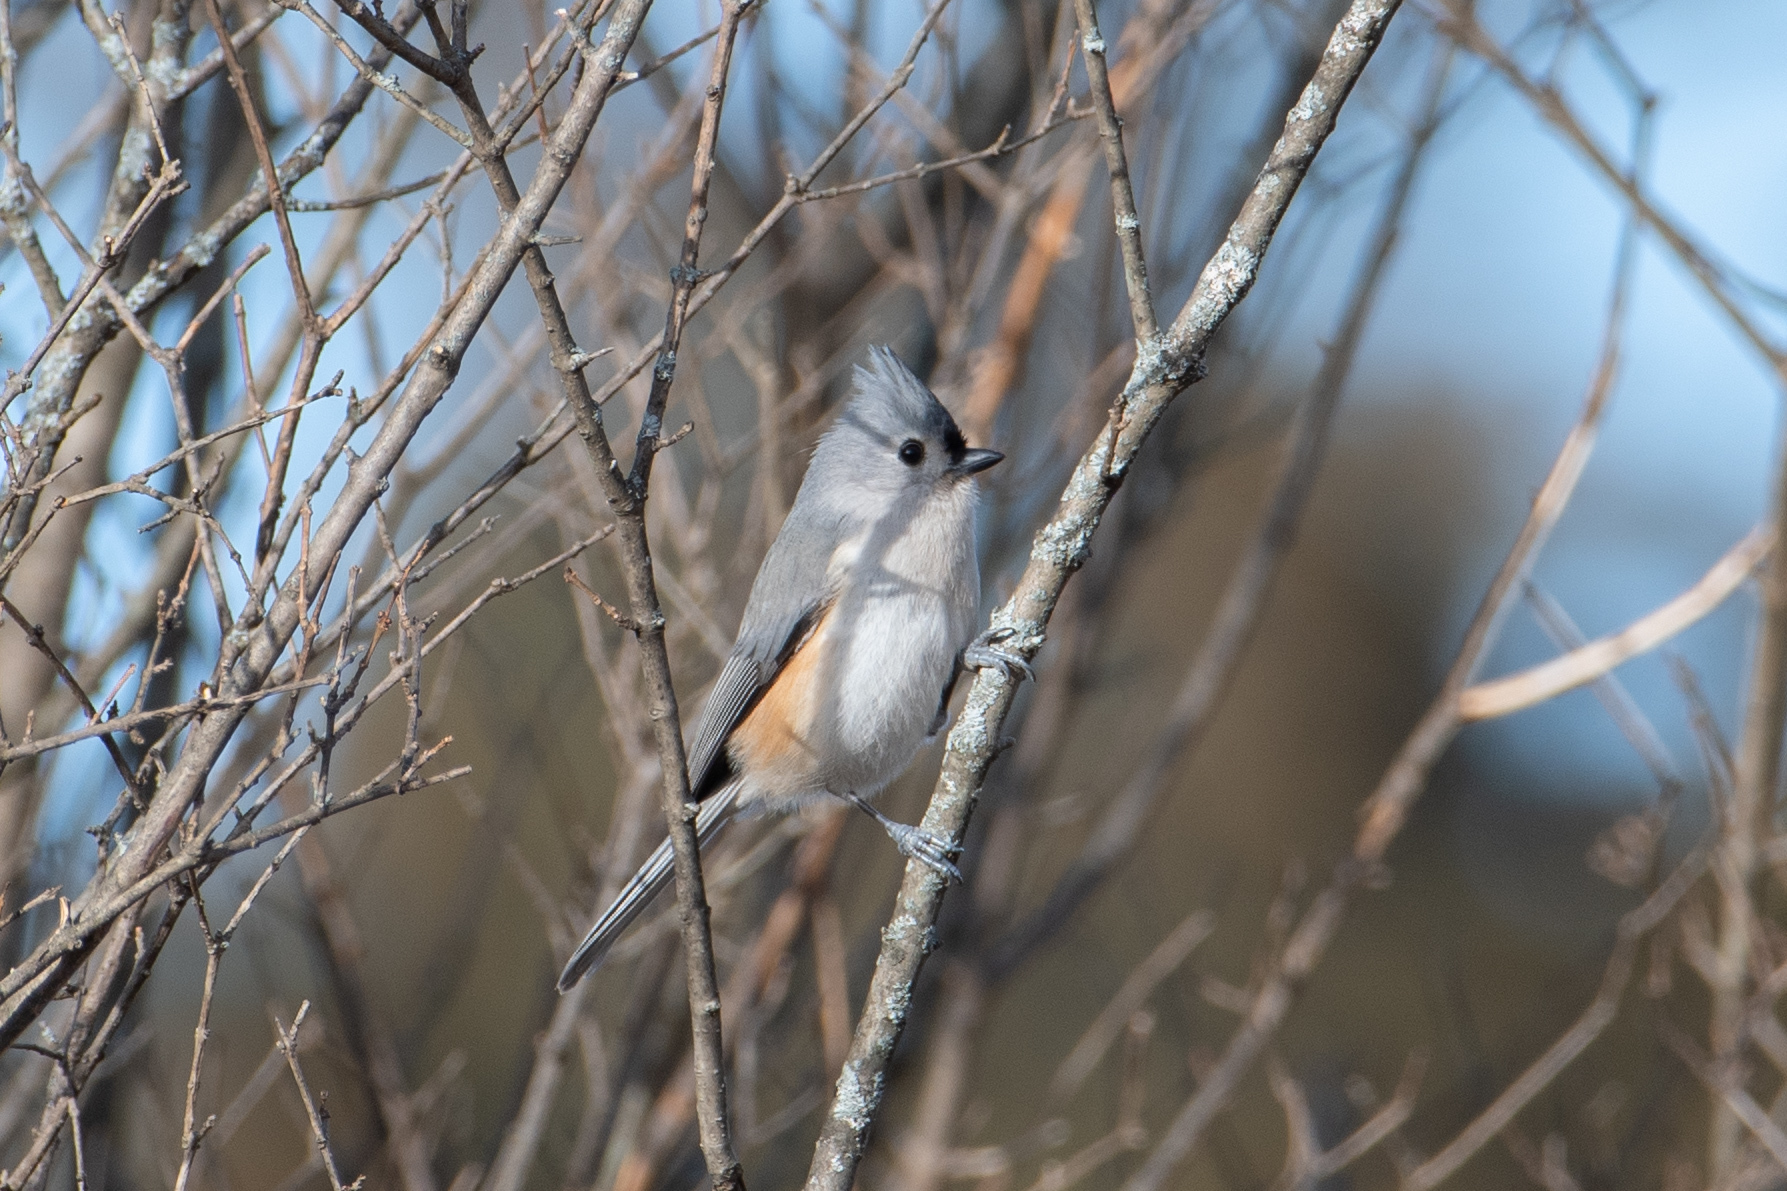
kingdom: Animalia
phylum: Chordata
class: Aves
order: Passeriformes
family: Paridae
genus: Baeolophus
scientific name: Baeolophus bicolor
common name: Tufted titmouse
